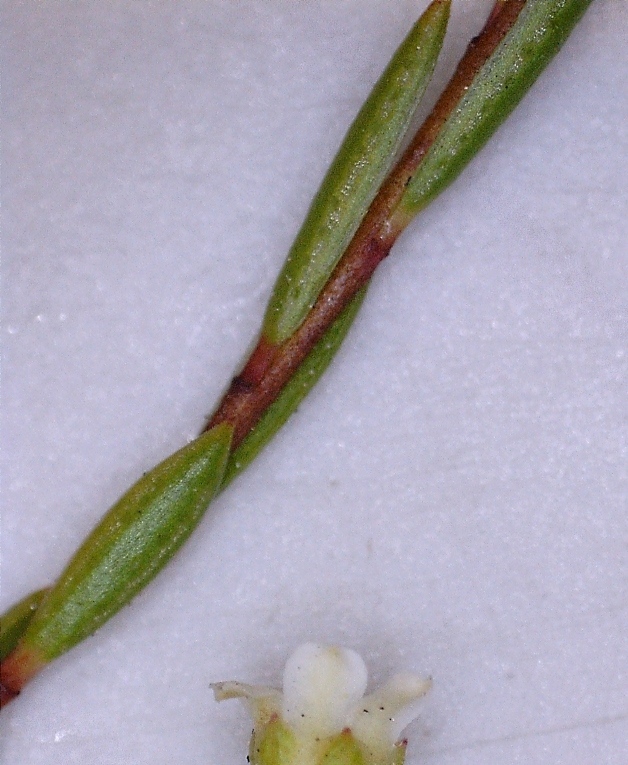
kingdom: Plantae
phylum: Tracheophyta
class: Magnoliopsida
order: Sapindales
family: Rutaceae
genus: Coleonema
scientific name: Coleonema juniperinum
